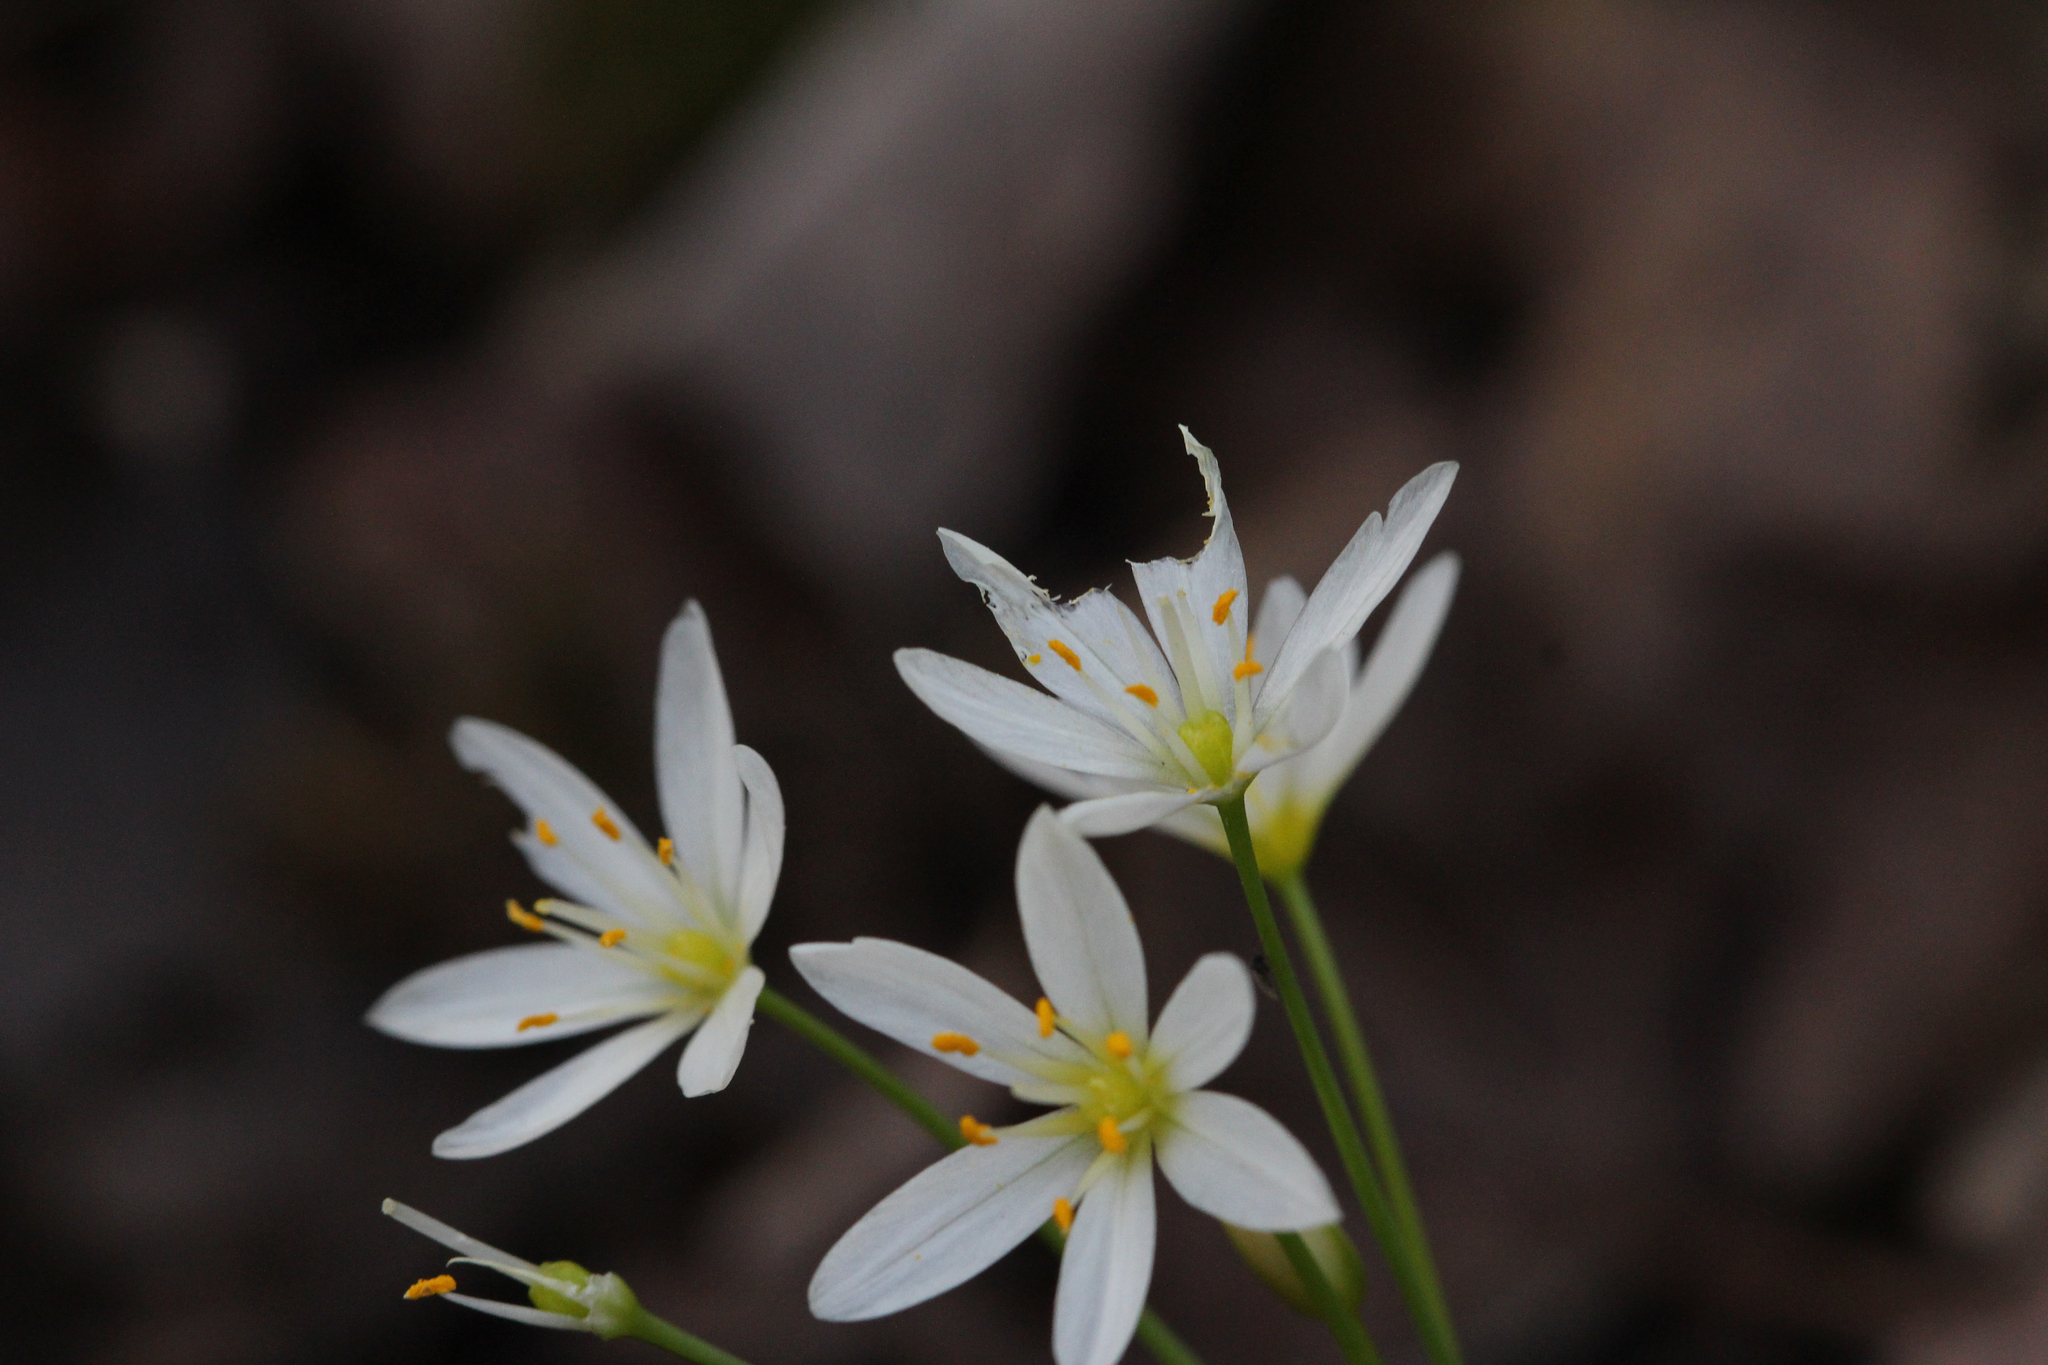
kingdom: Plantae
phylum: Tracheophyta
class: Liliopsida
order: Asparagales
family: Amaryllidaceae
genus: Nothoscordum
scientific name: Nothoscordum bivalve
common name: Crow-poison
